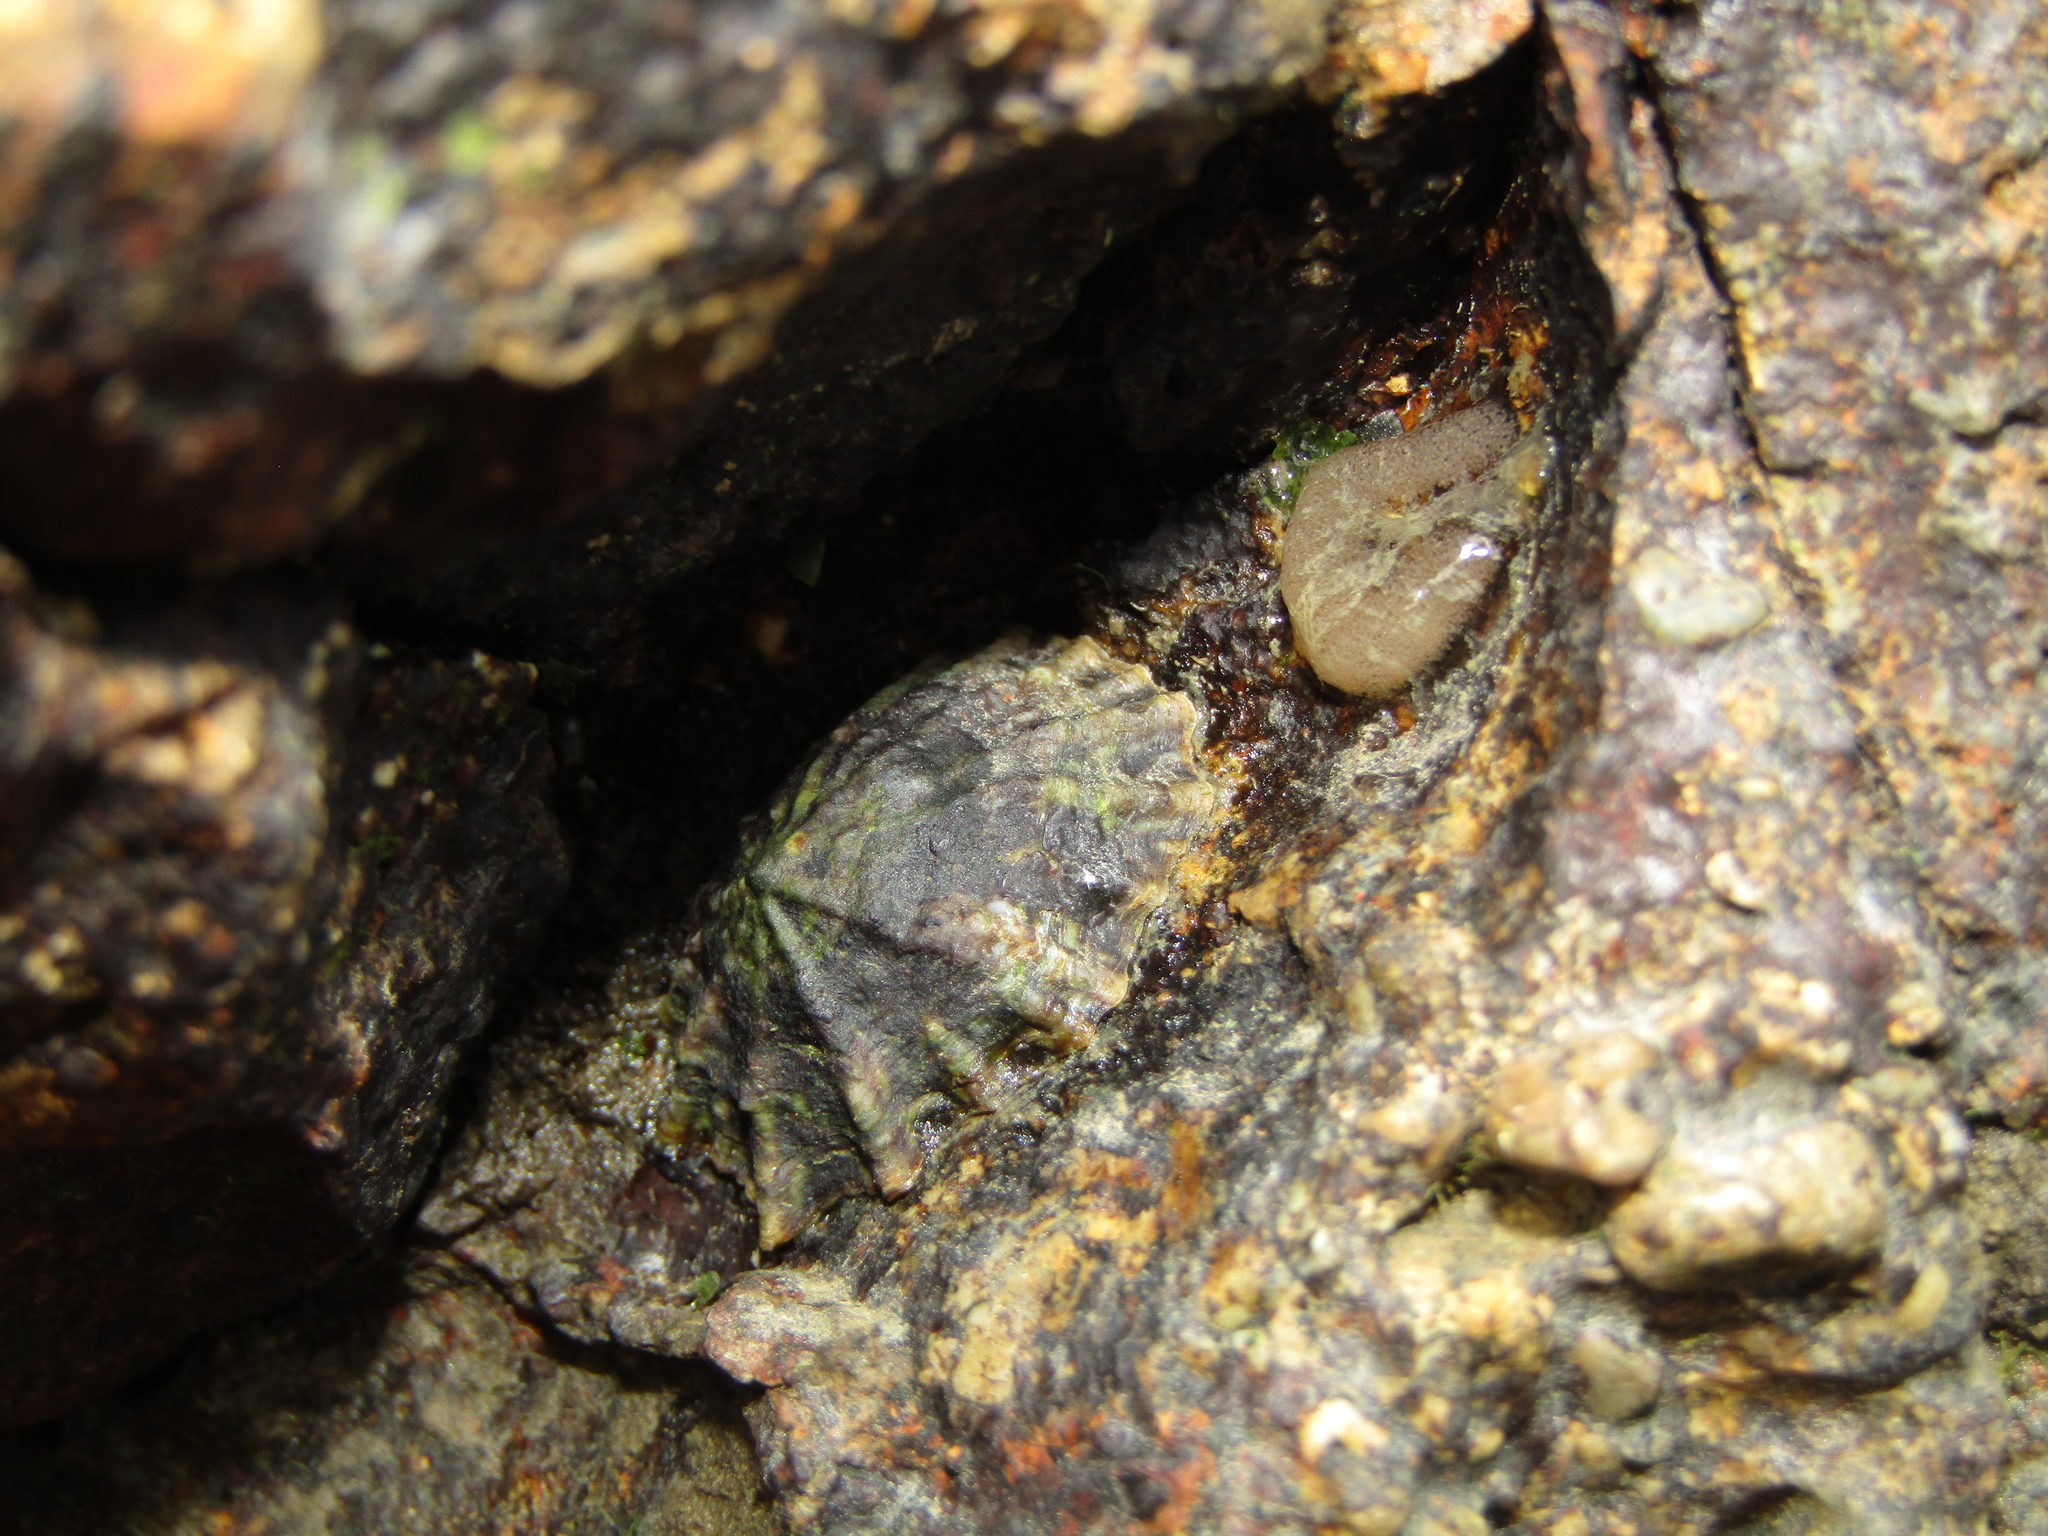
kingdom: Animalia
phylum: Mollusca
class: Gastropoda
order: Siphonariida
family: Siphonariidae
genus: Siphonaria
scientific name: Siphonaria australis
